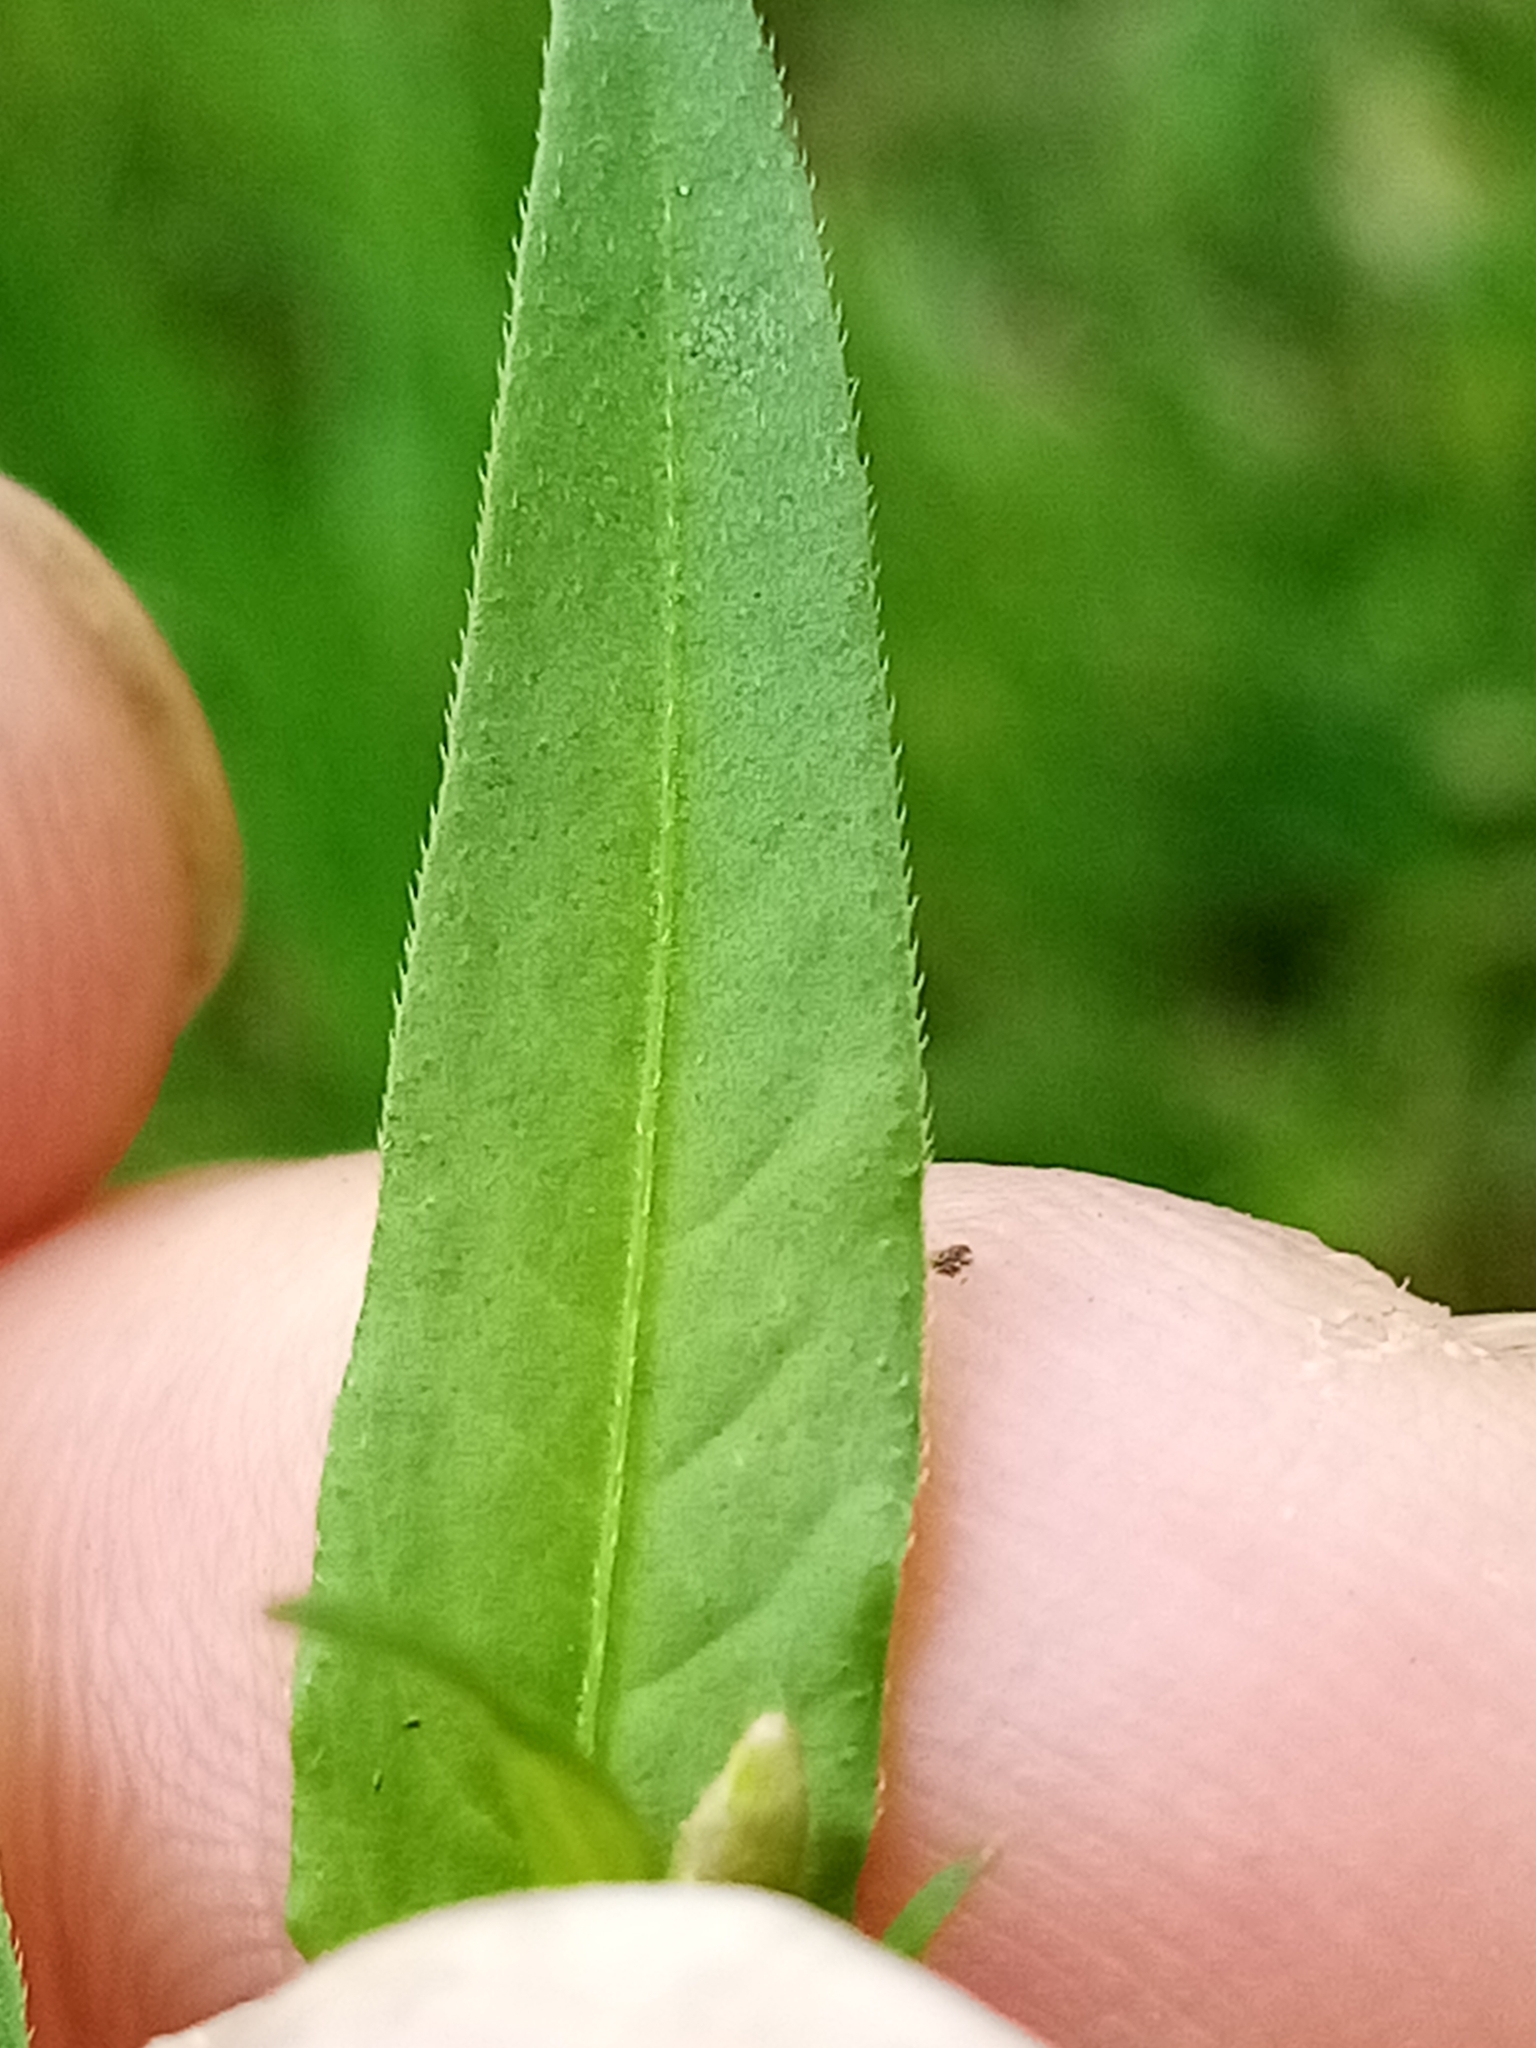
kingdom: Plantae
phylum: Tracheophyta
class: Magnoliopsida
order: Caryophyllales
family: Polygonaceae
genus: Persicaria
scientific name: Persicaria maculosa
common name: Redshank
